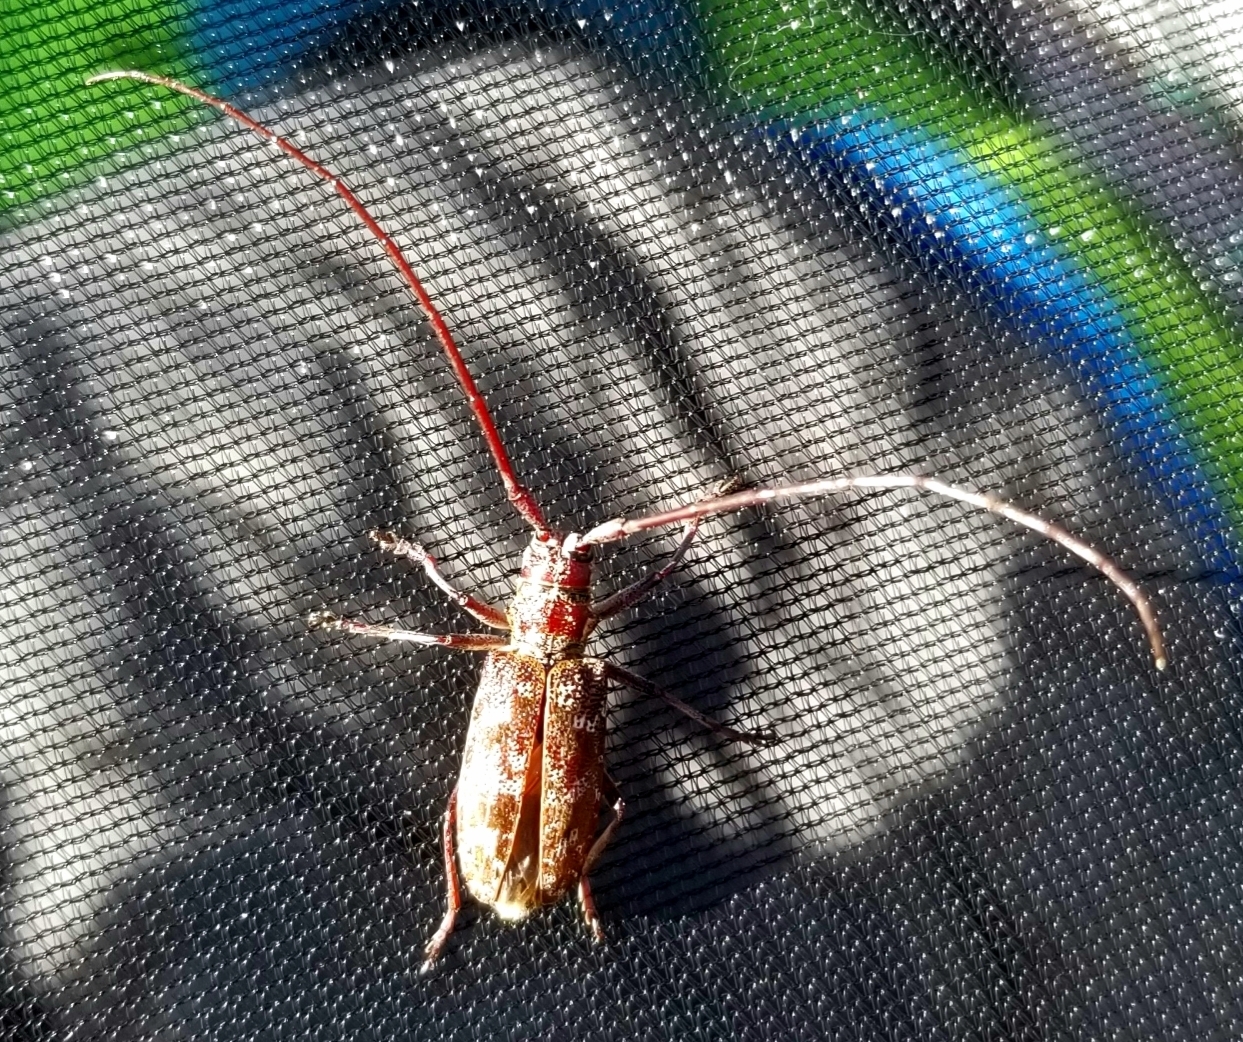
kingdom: Animalia
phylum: Arthropoda
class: Insecta
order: Coleoptera
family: Cerambycidae
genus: Monochamus
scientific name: Monochamus obtusus
